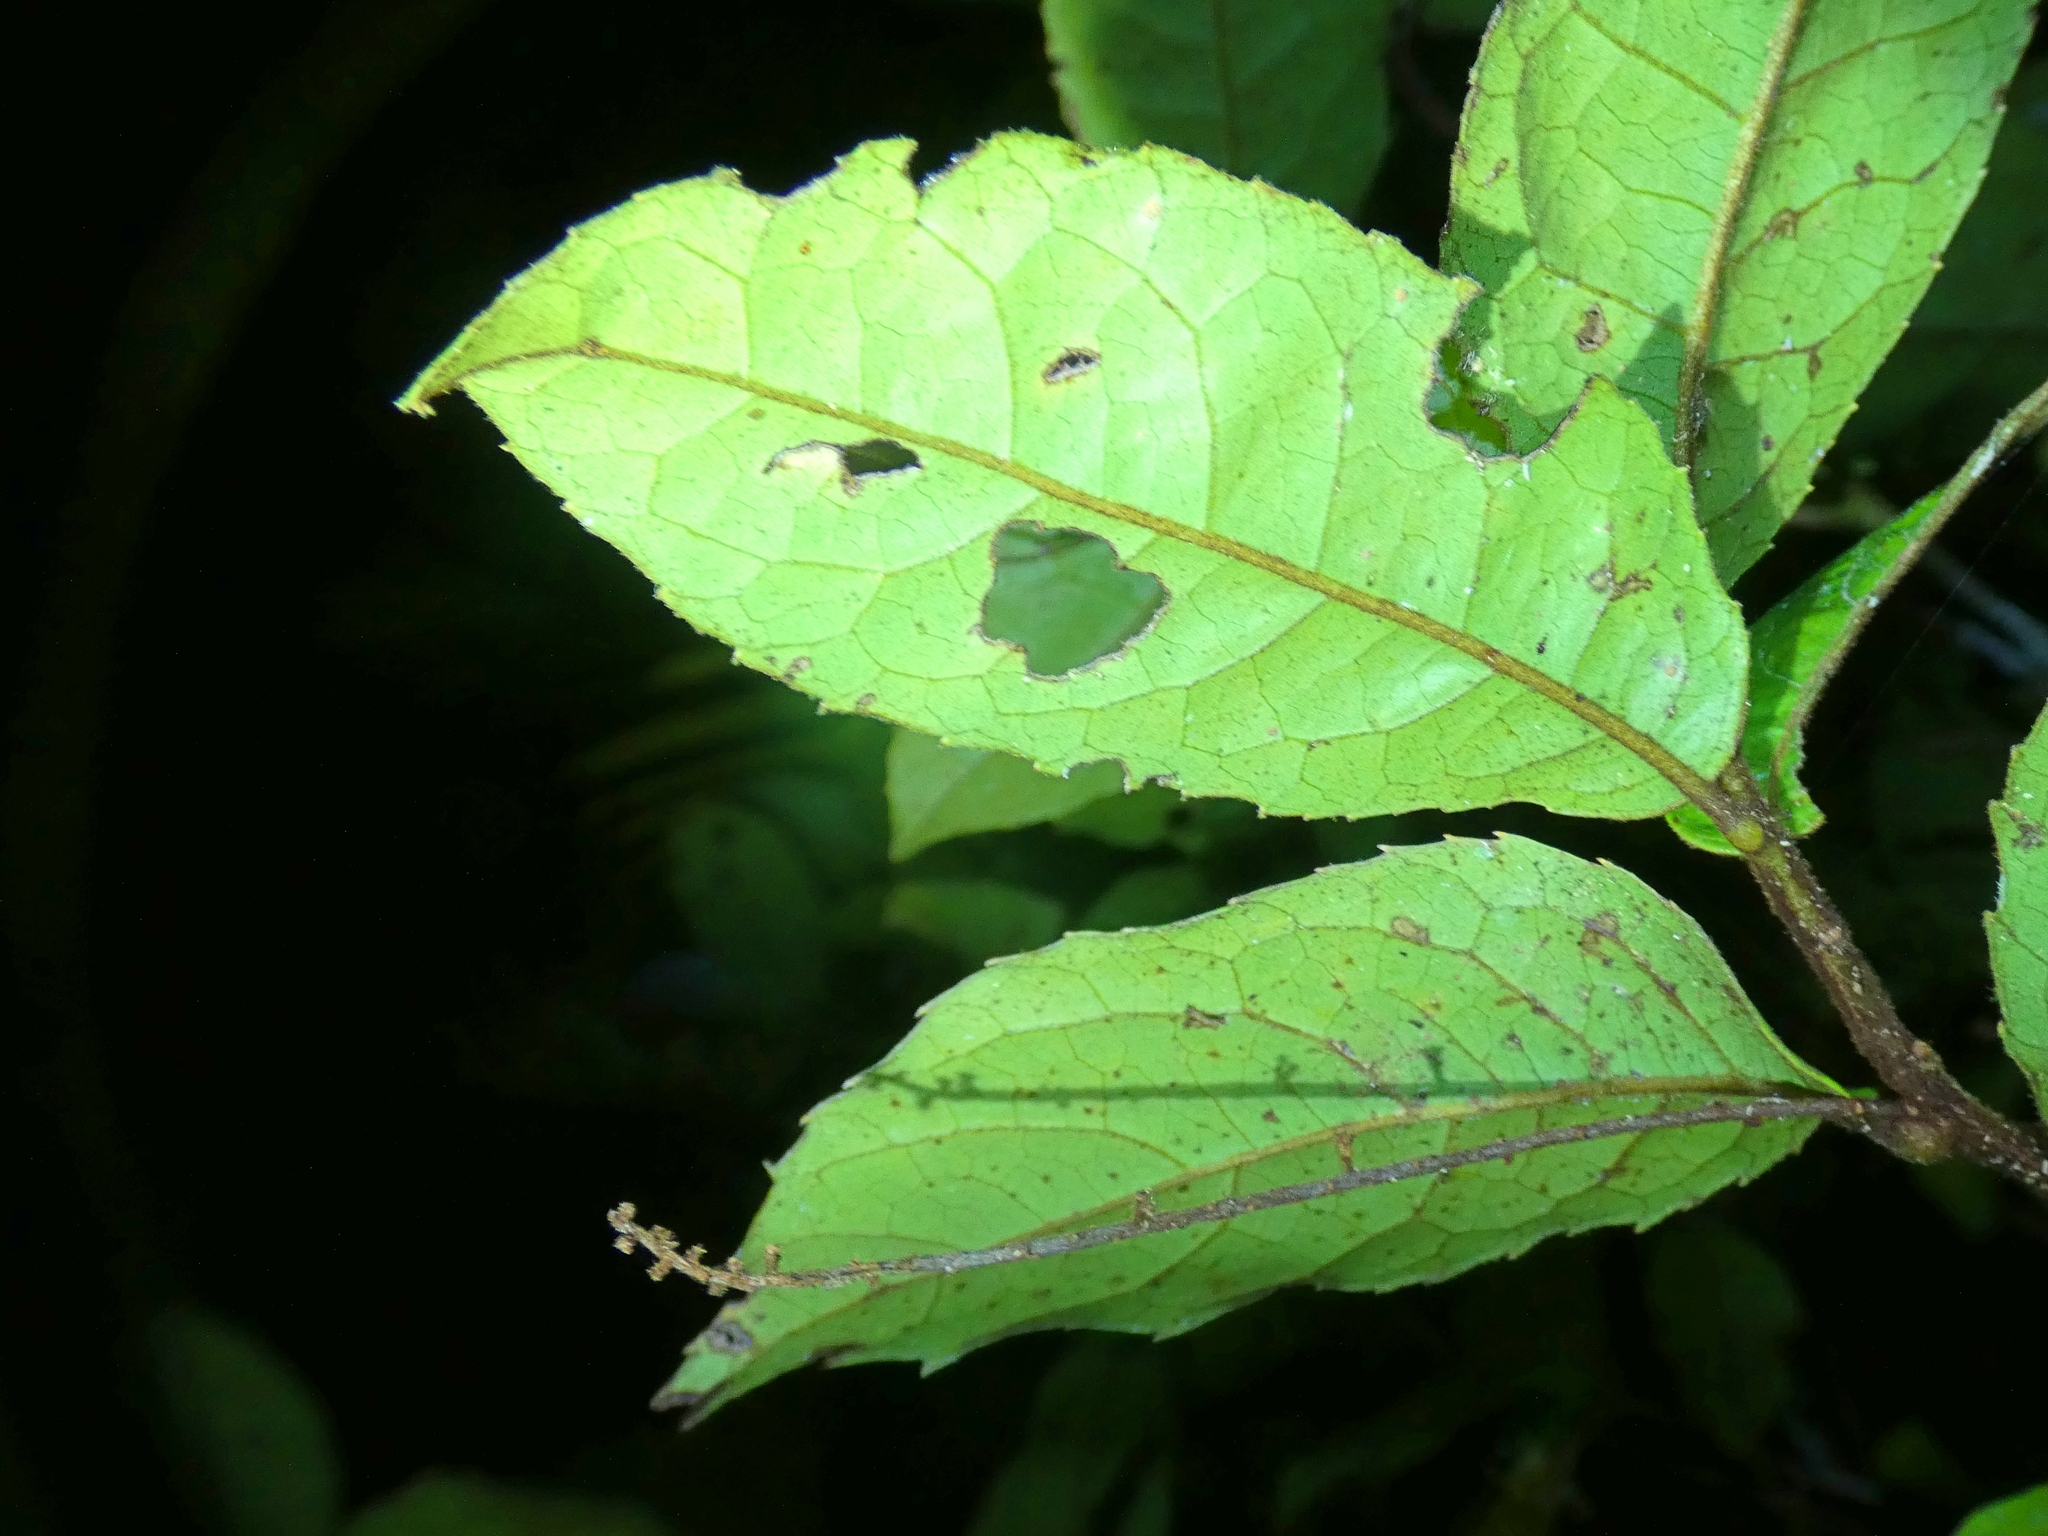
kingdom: Plantae
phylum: Tracheophyta
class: Magnoliopsida
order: Proteales
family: Proteaceae
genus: Helicia
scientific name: Helicia nortoniana
